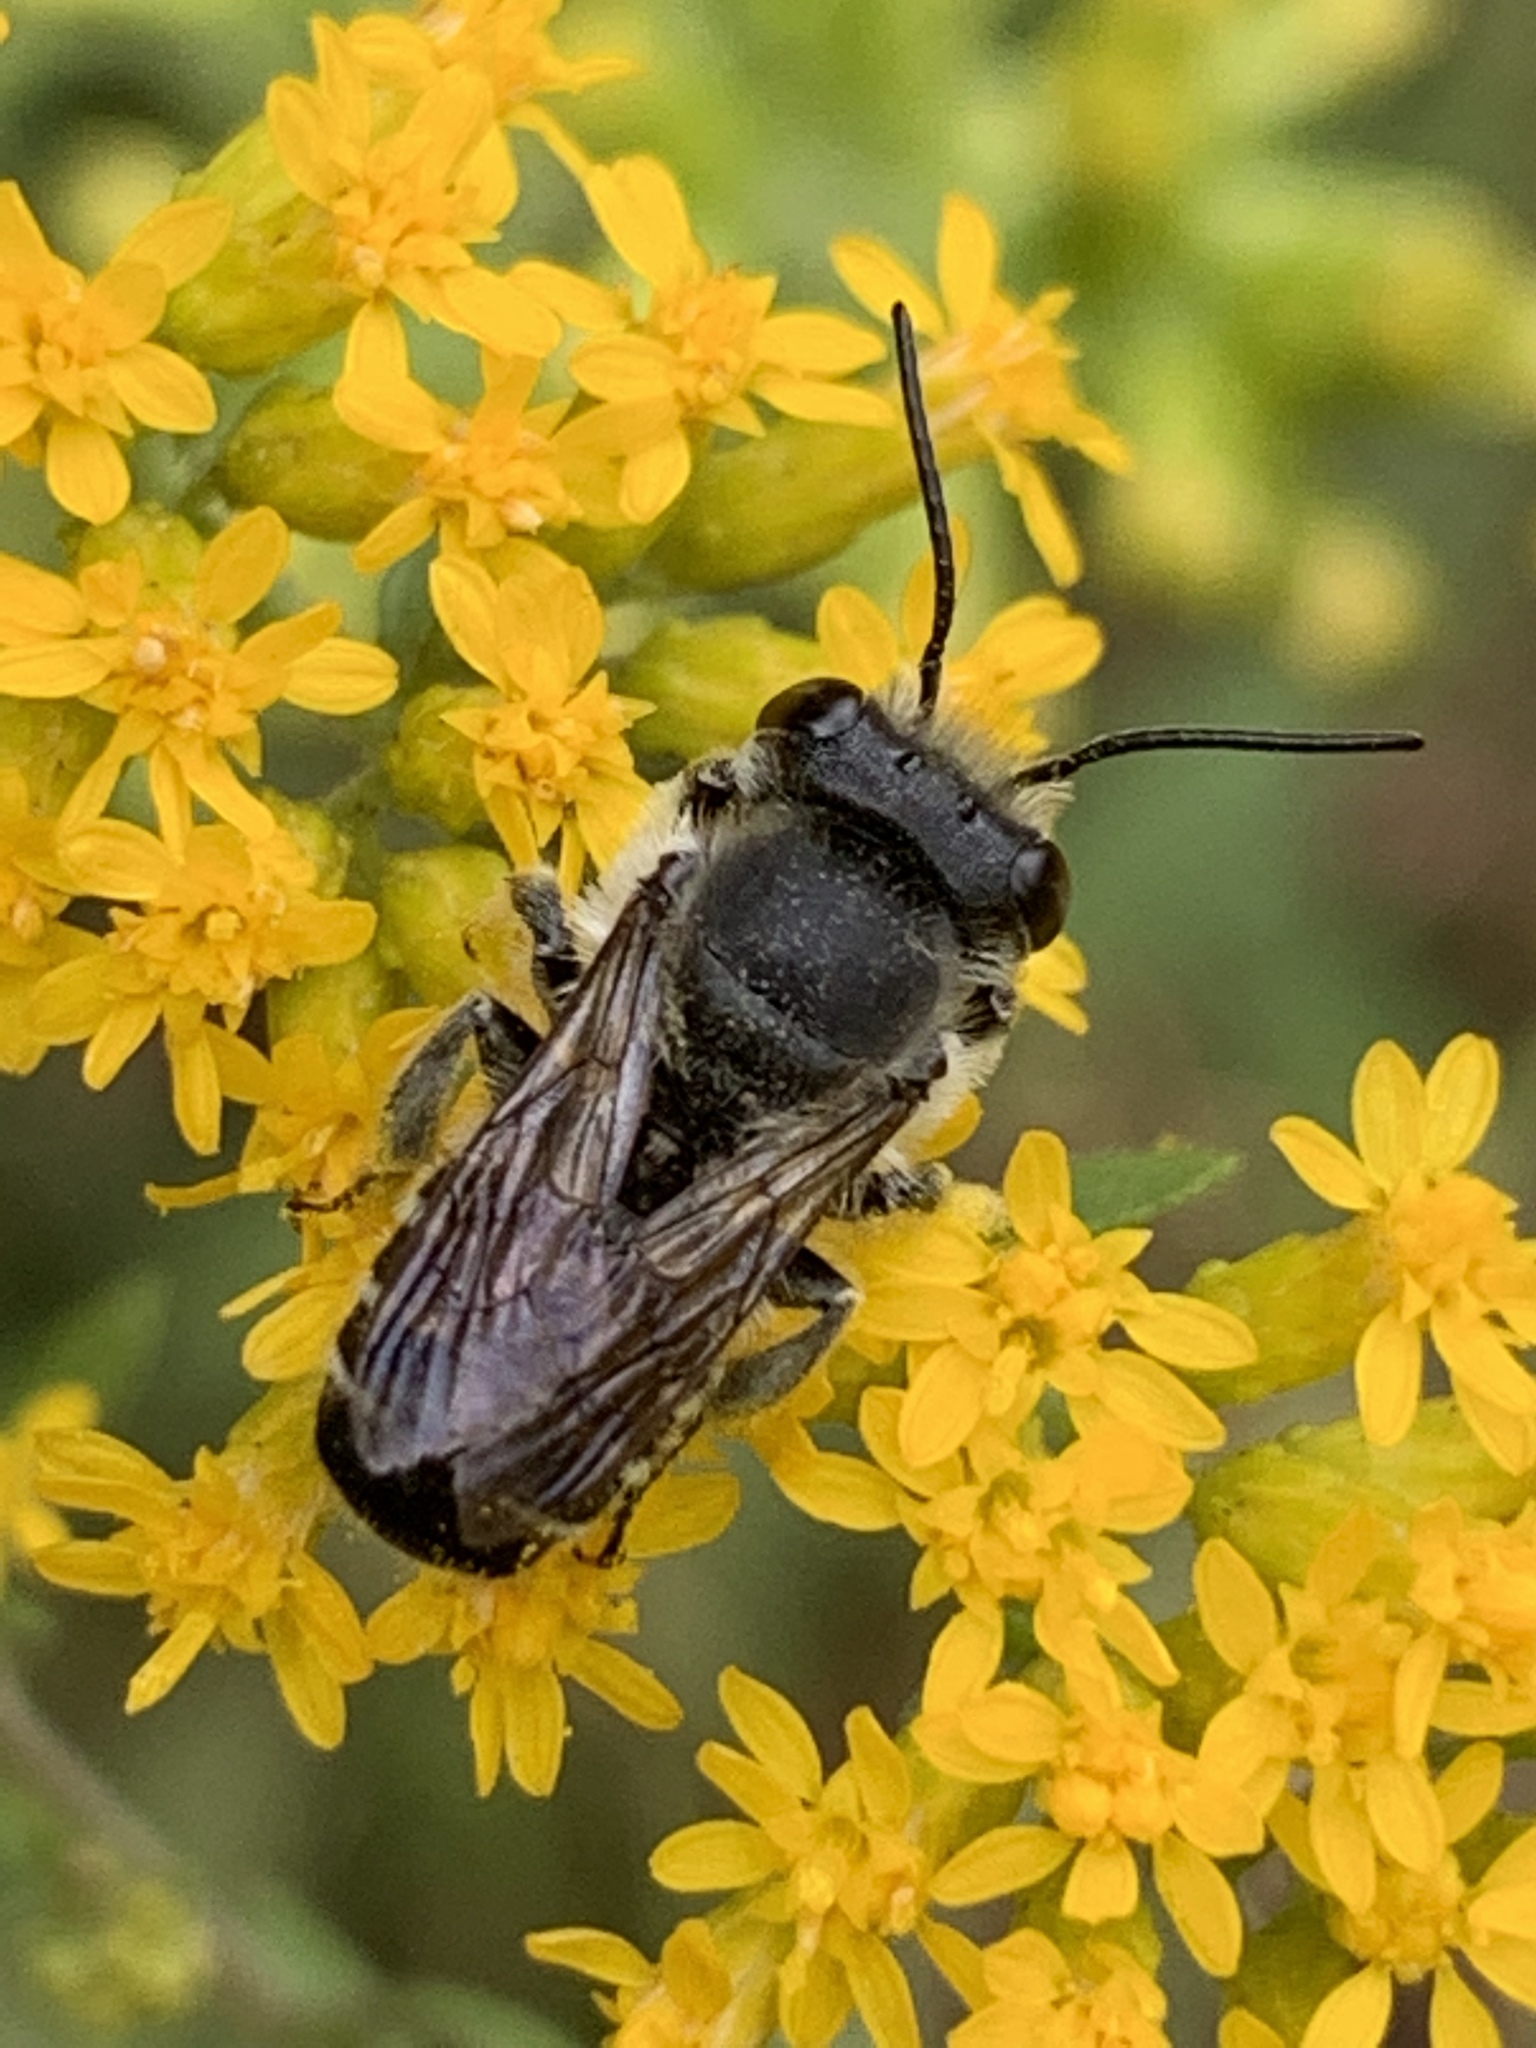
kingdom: Animalia
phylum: Arthropoda
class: Insecta
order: Hymenoptera
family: Megachilidae
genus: Megachile
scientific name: Megachile
